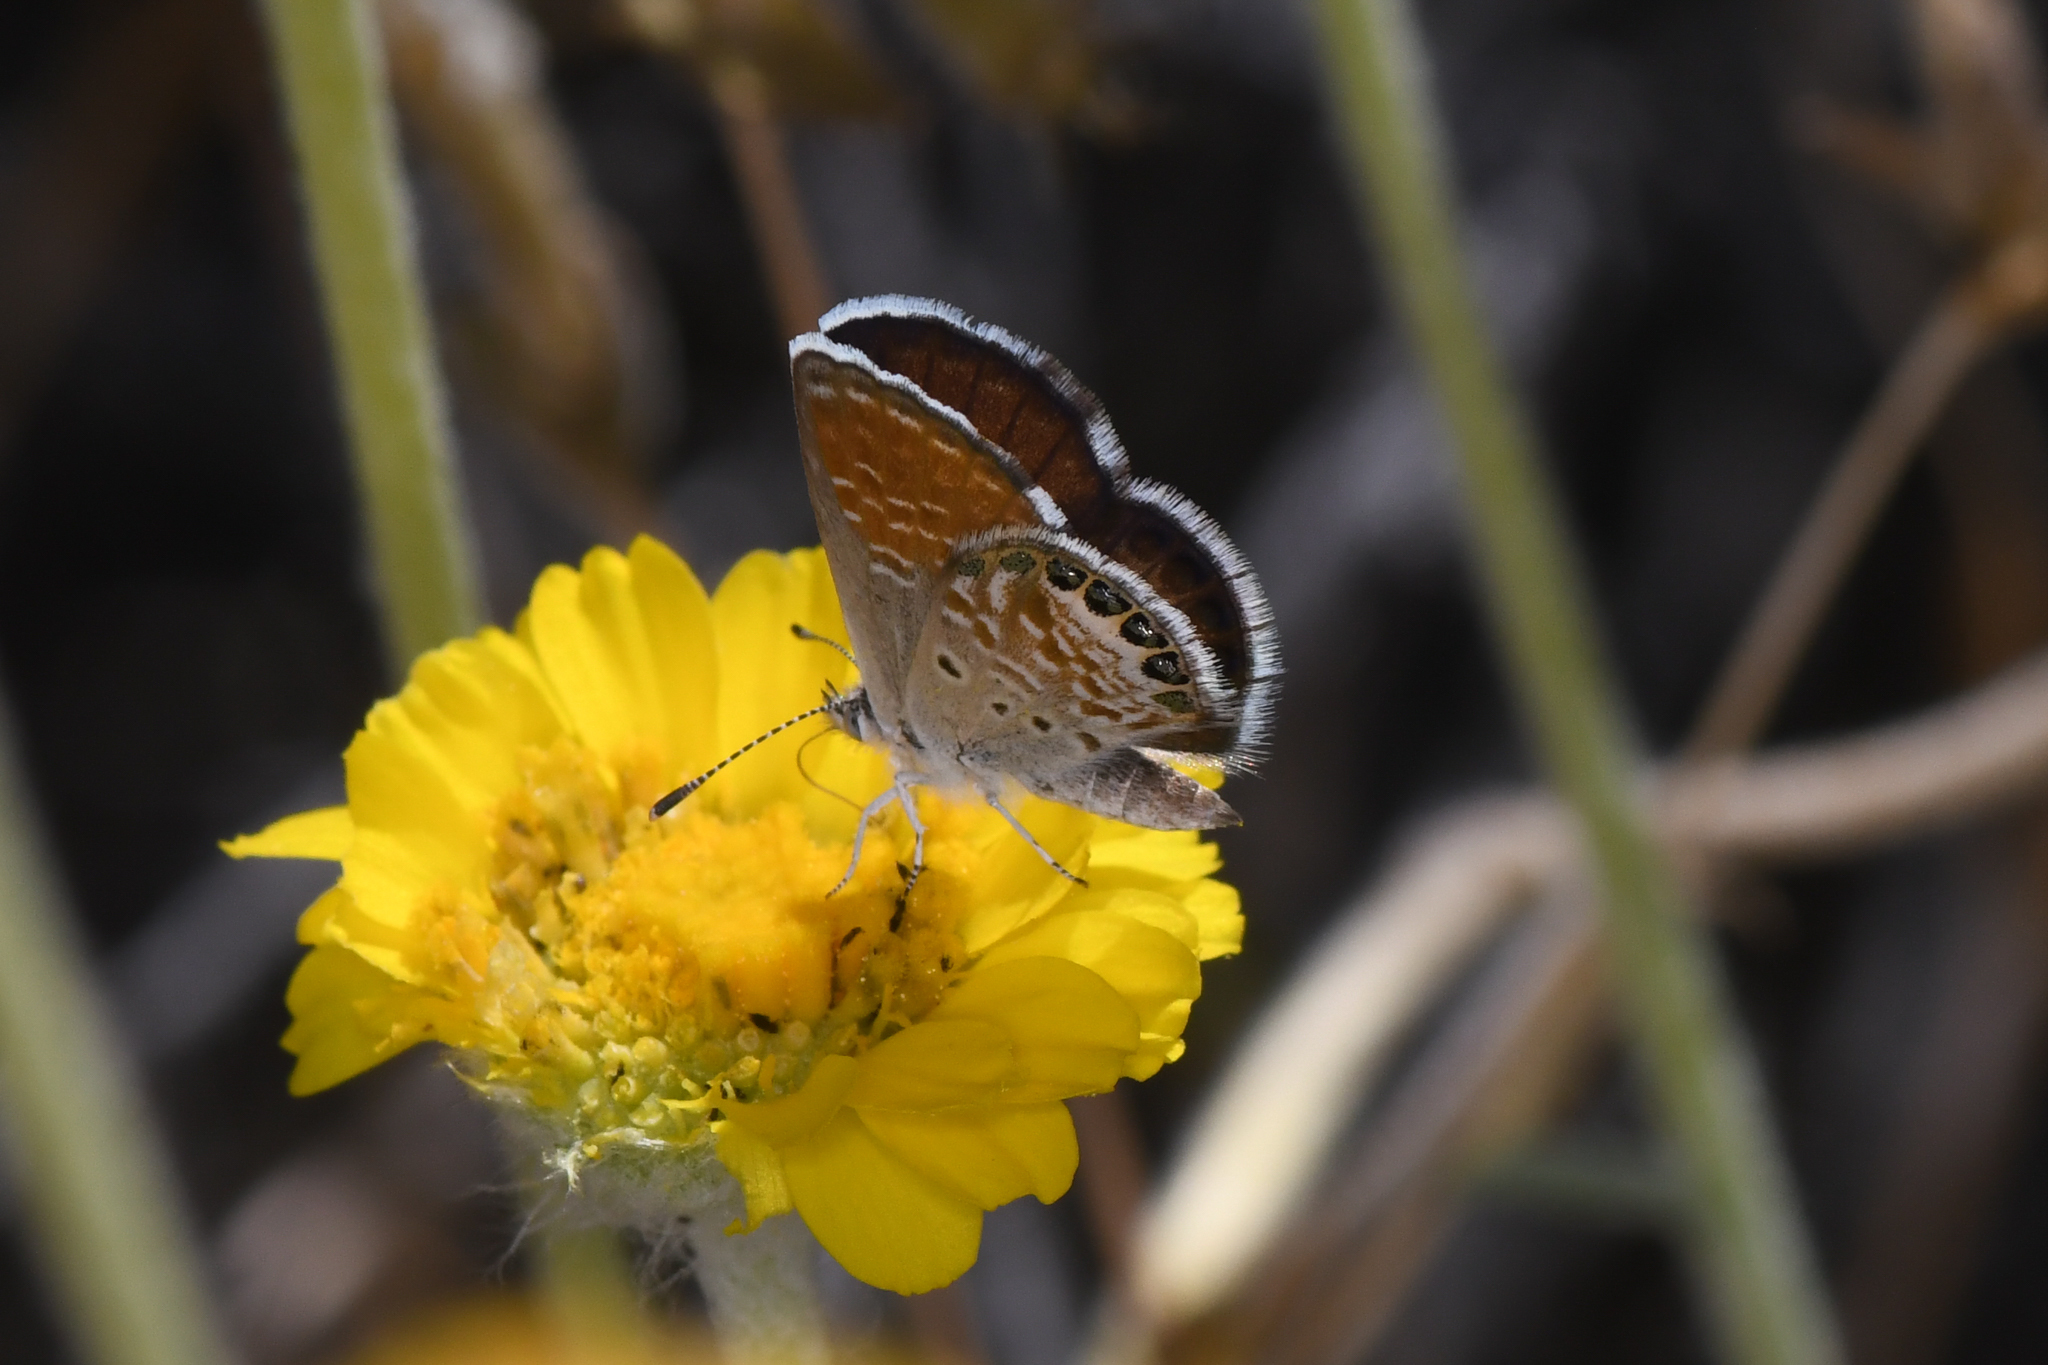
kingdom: Animalia
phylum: Arthropoda
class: Insecta
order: Lepidoptera
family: Lycaenidae
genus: Brephidium
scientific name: Brephidium exilis
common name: Pygmy blue
